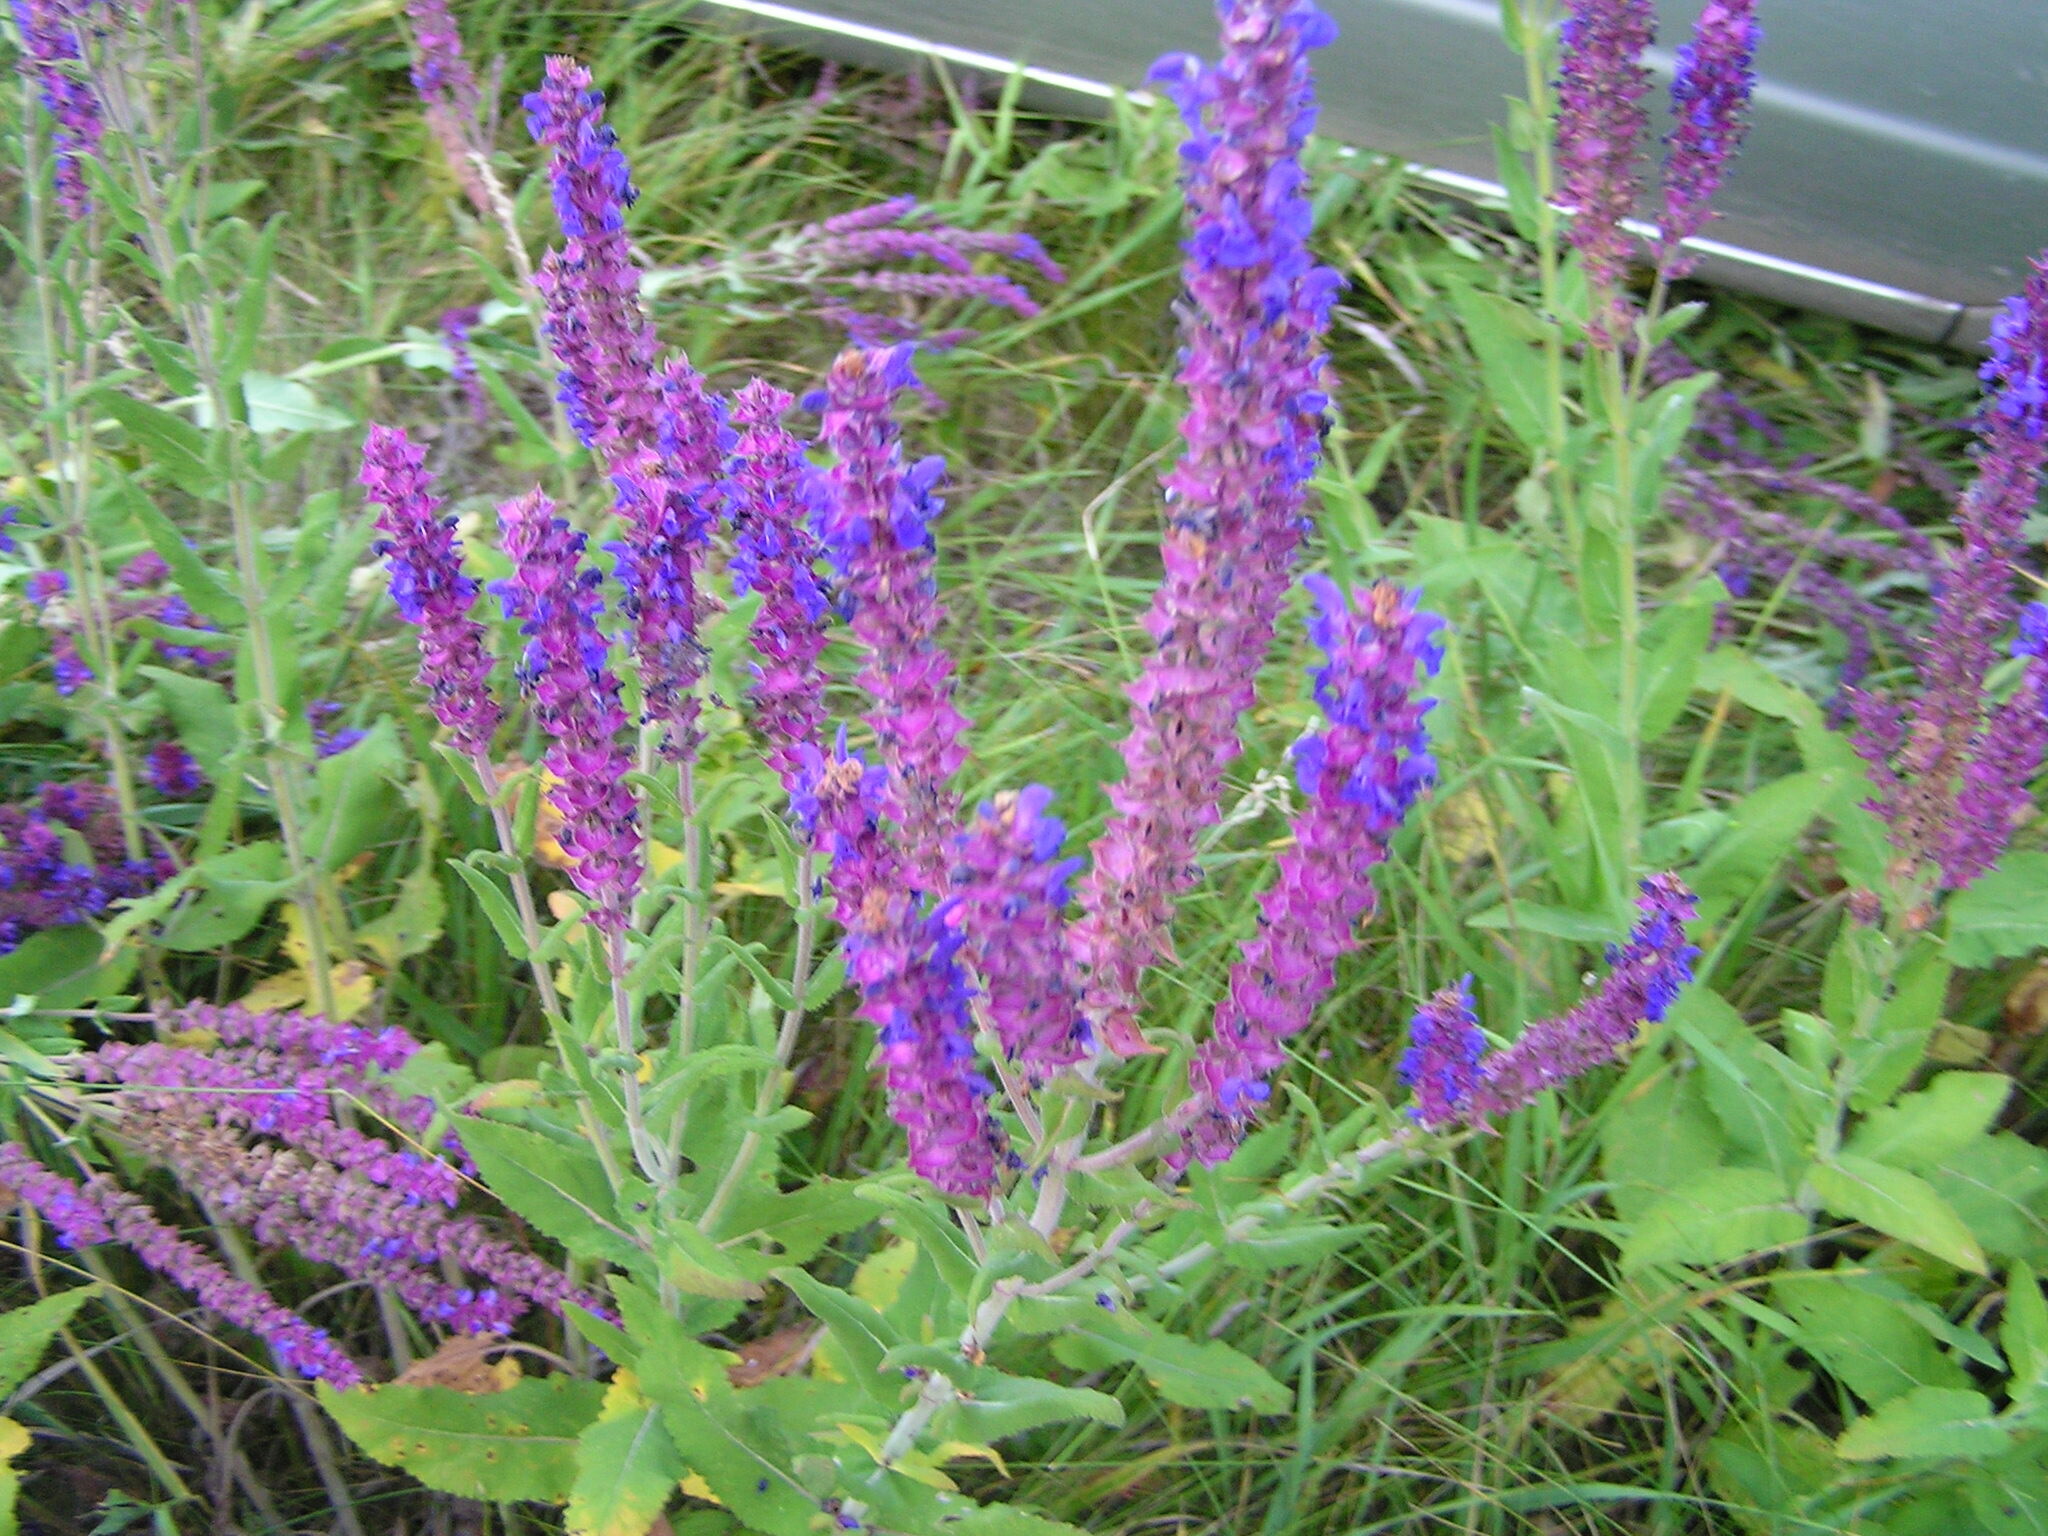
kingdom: Plantae
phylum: Tracheophyta
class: Magnoliopsida
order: Lamiales
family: Lamiaceae
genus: Salvia
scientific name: Salvia nemorosa
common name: Balkan clary
